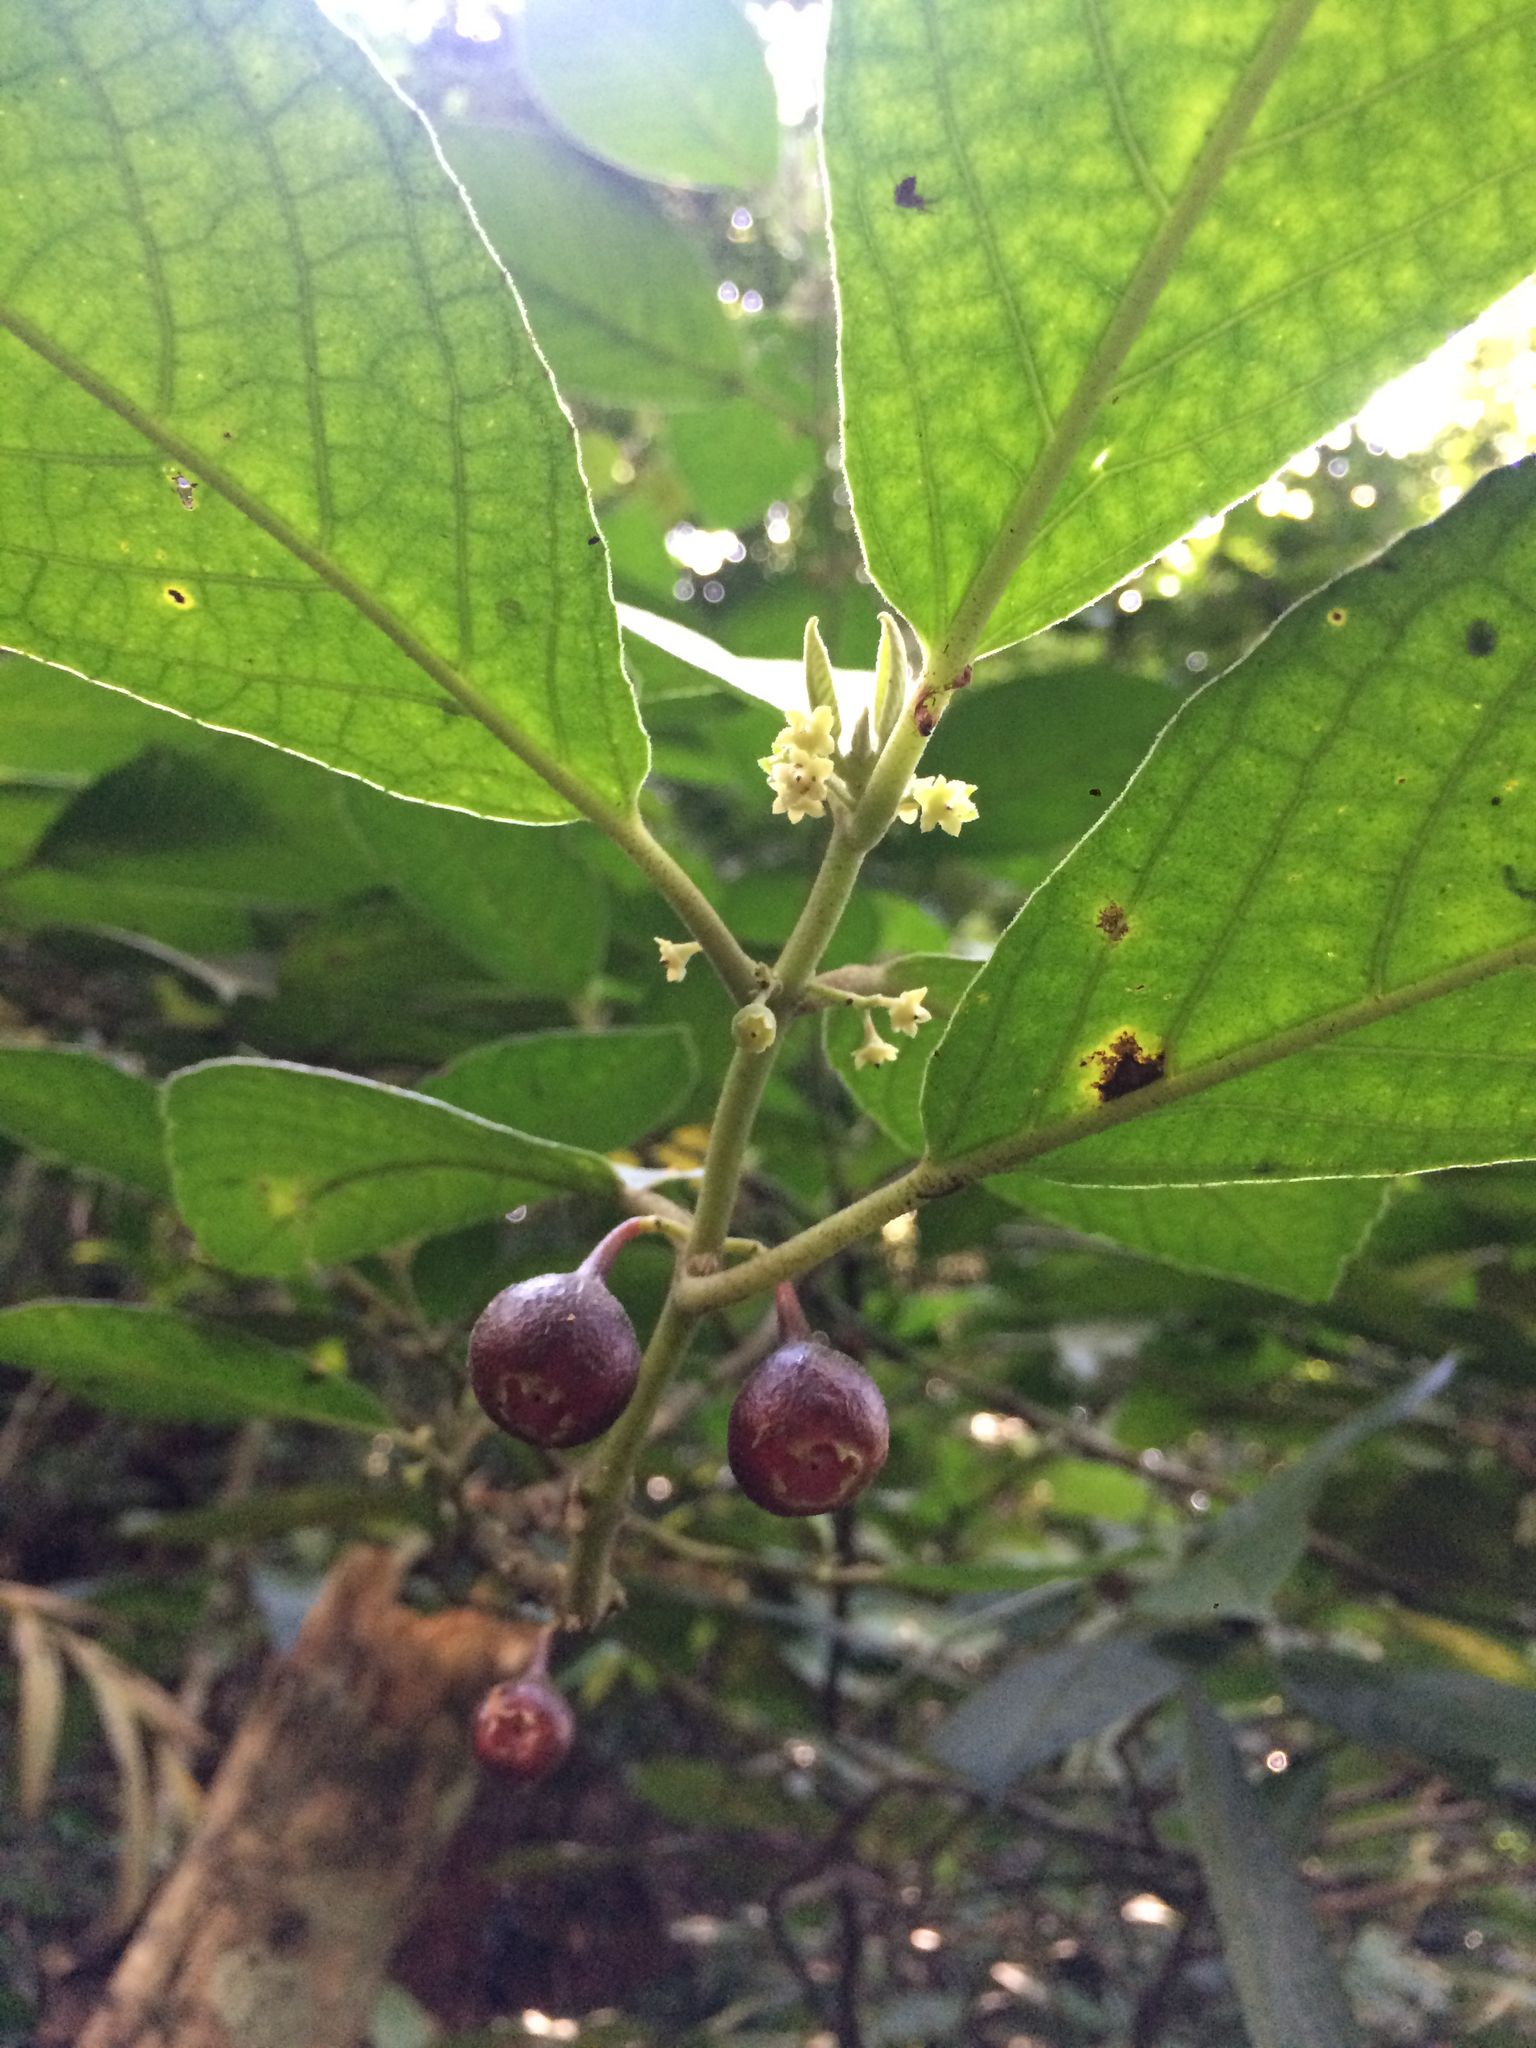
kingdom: Plantae
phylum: Tracheophyta
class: Magnoliopsida
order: Laurales
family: Siparunaceae
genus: Siparuna
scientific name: Siparuna brasiliensis
